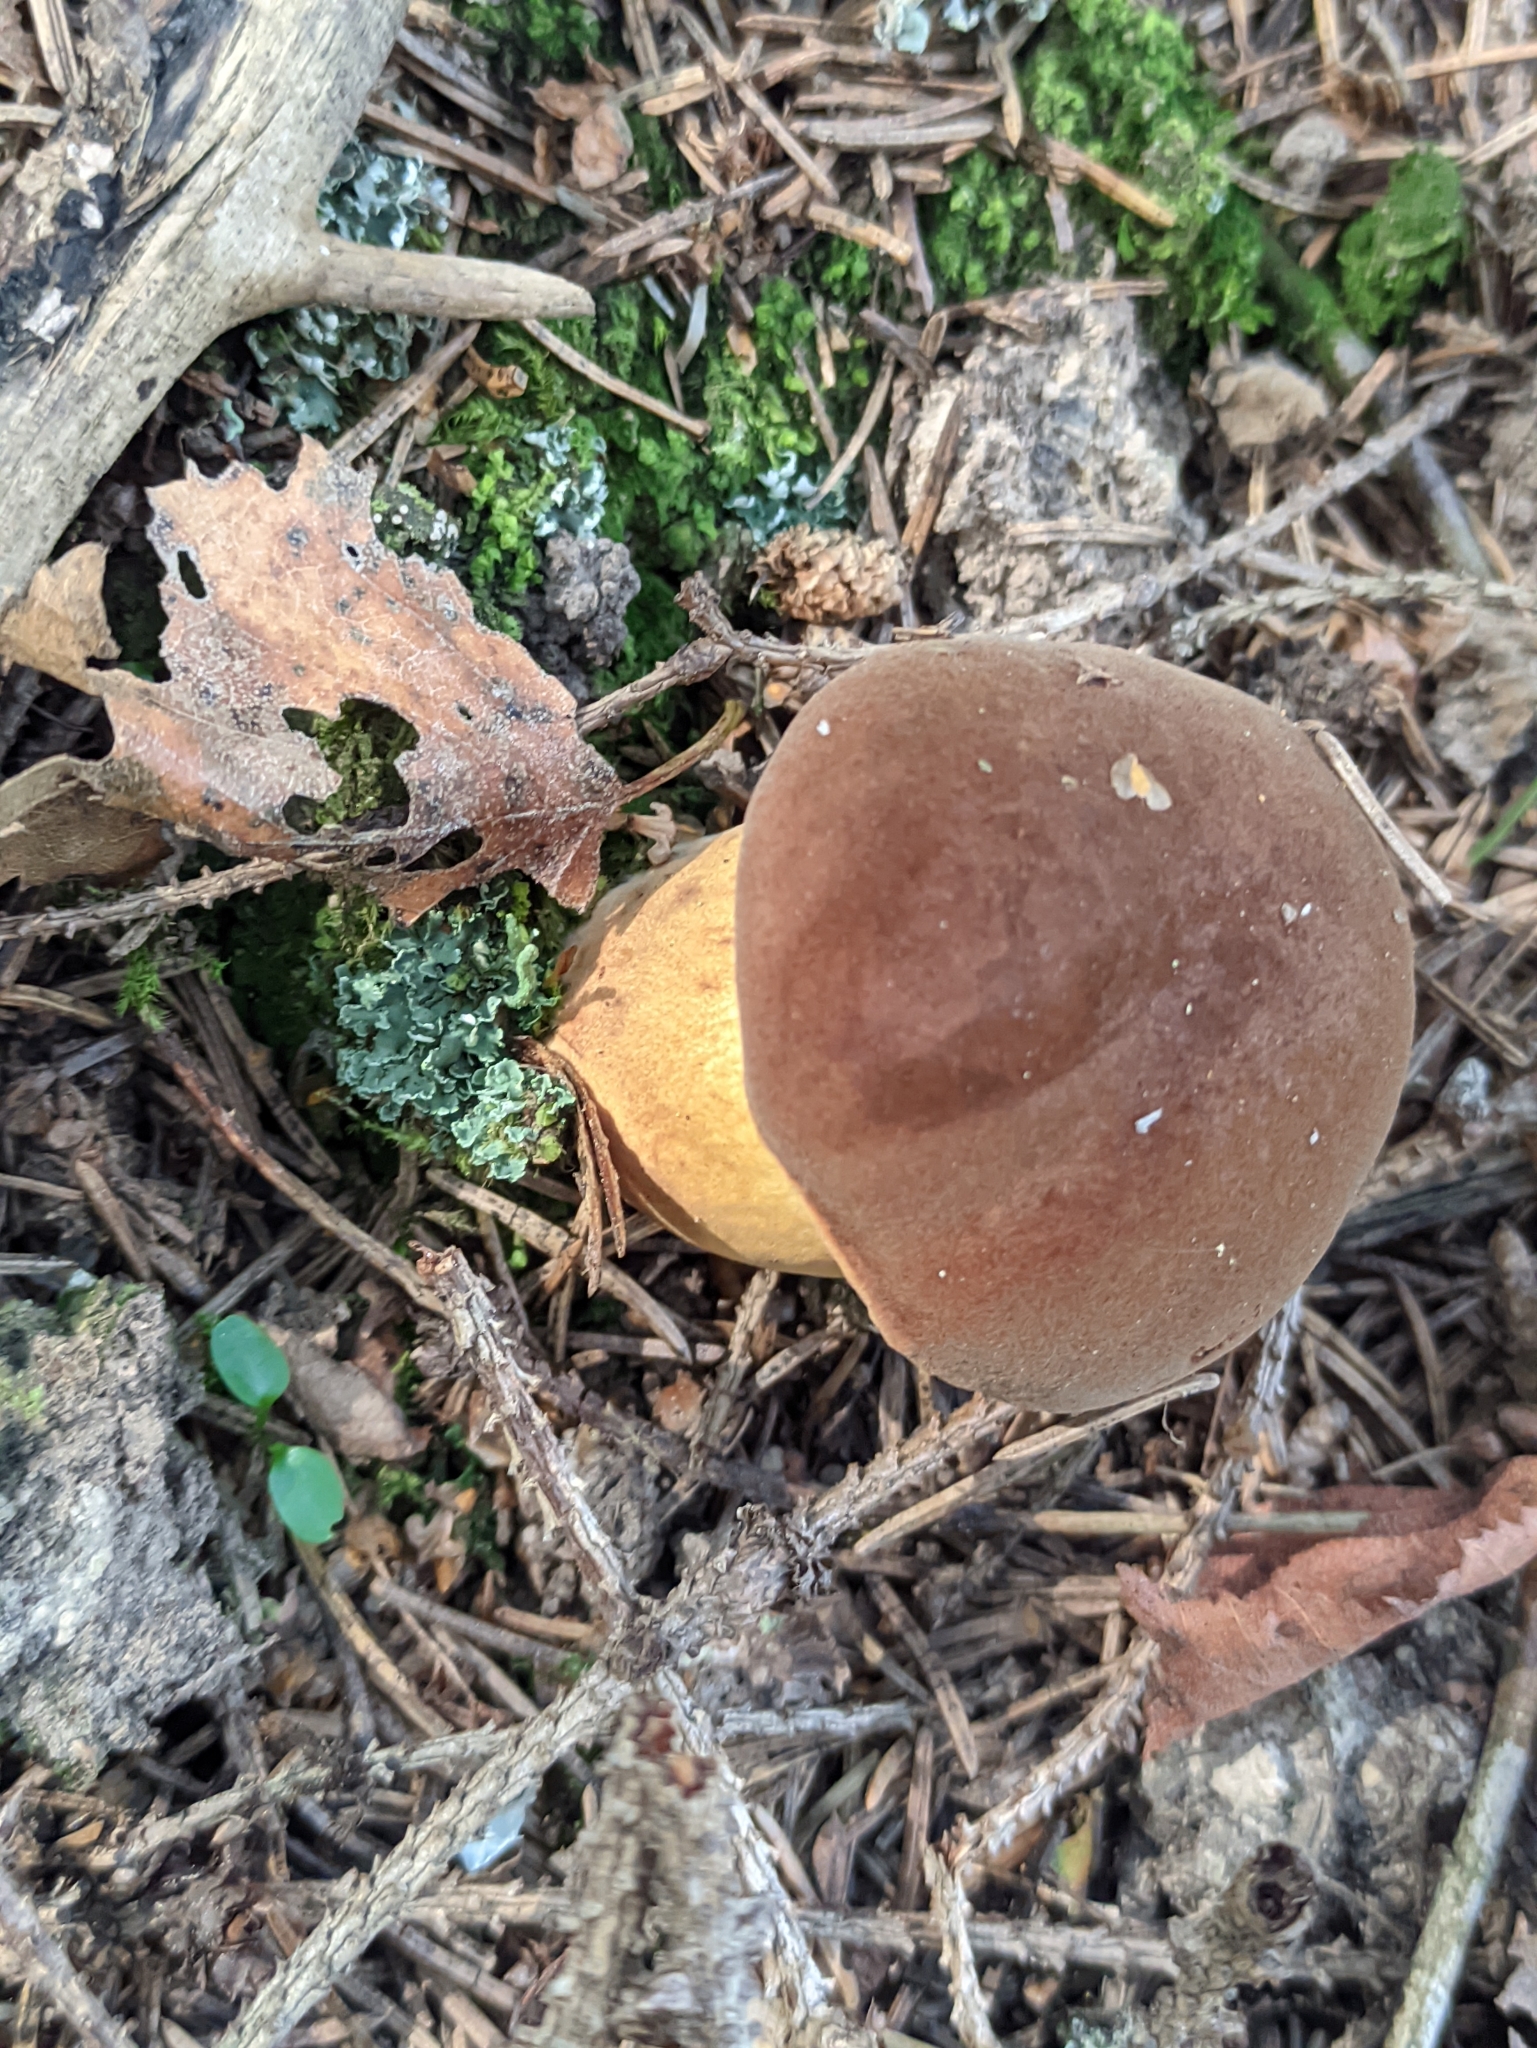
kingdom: Fungi
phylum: Basidiomycota
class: Agaricomycetes
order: Boletales
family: Boletaceae
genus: Imleria
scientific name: Imleria badia
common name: Bay bolete
